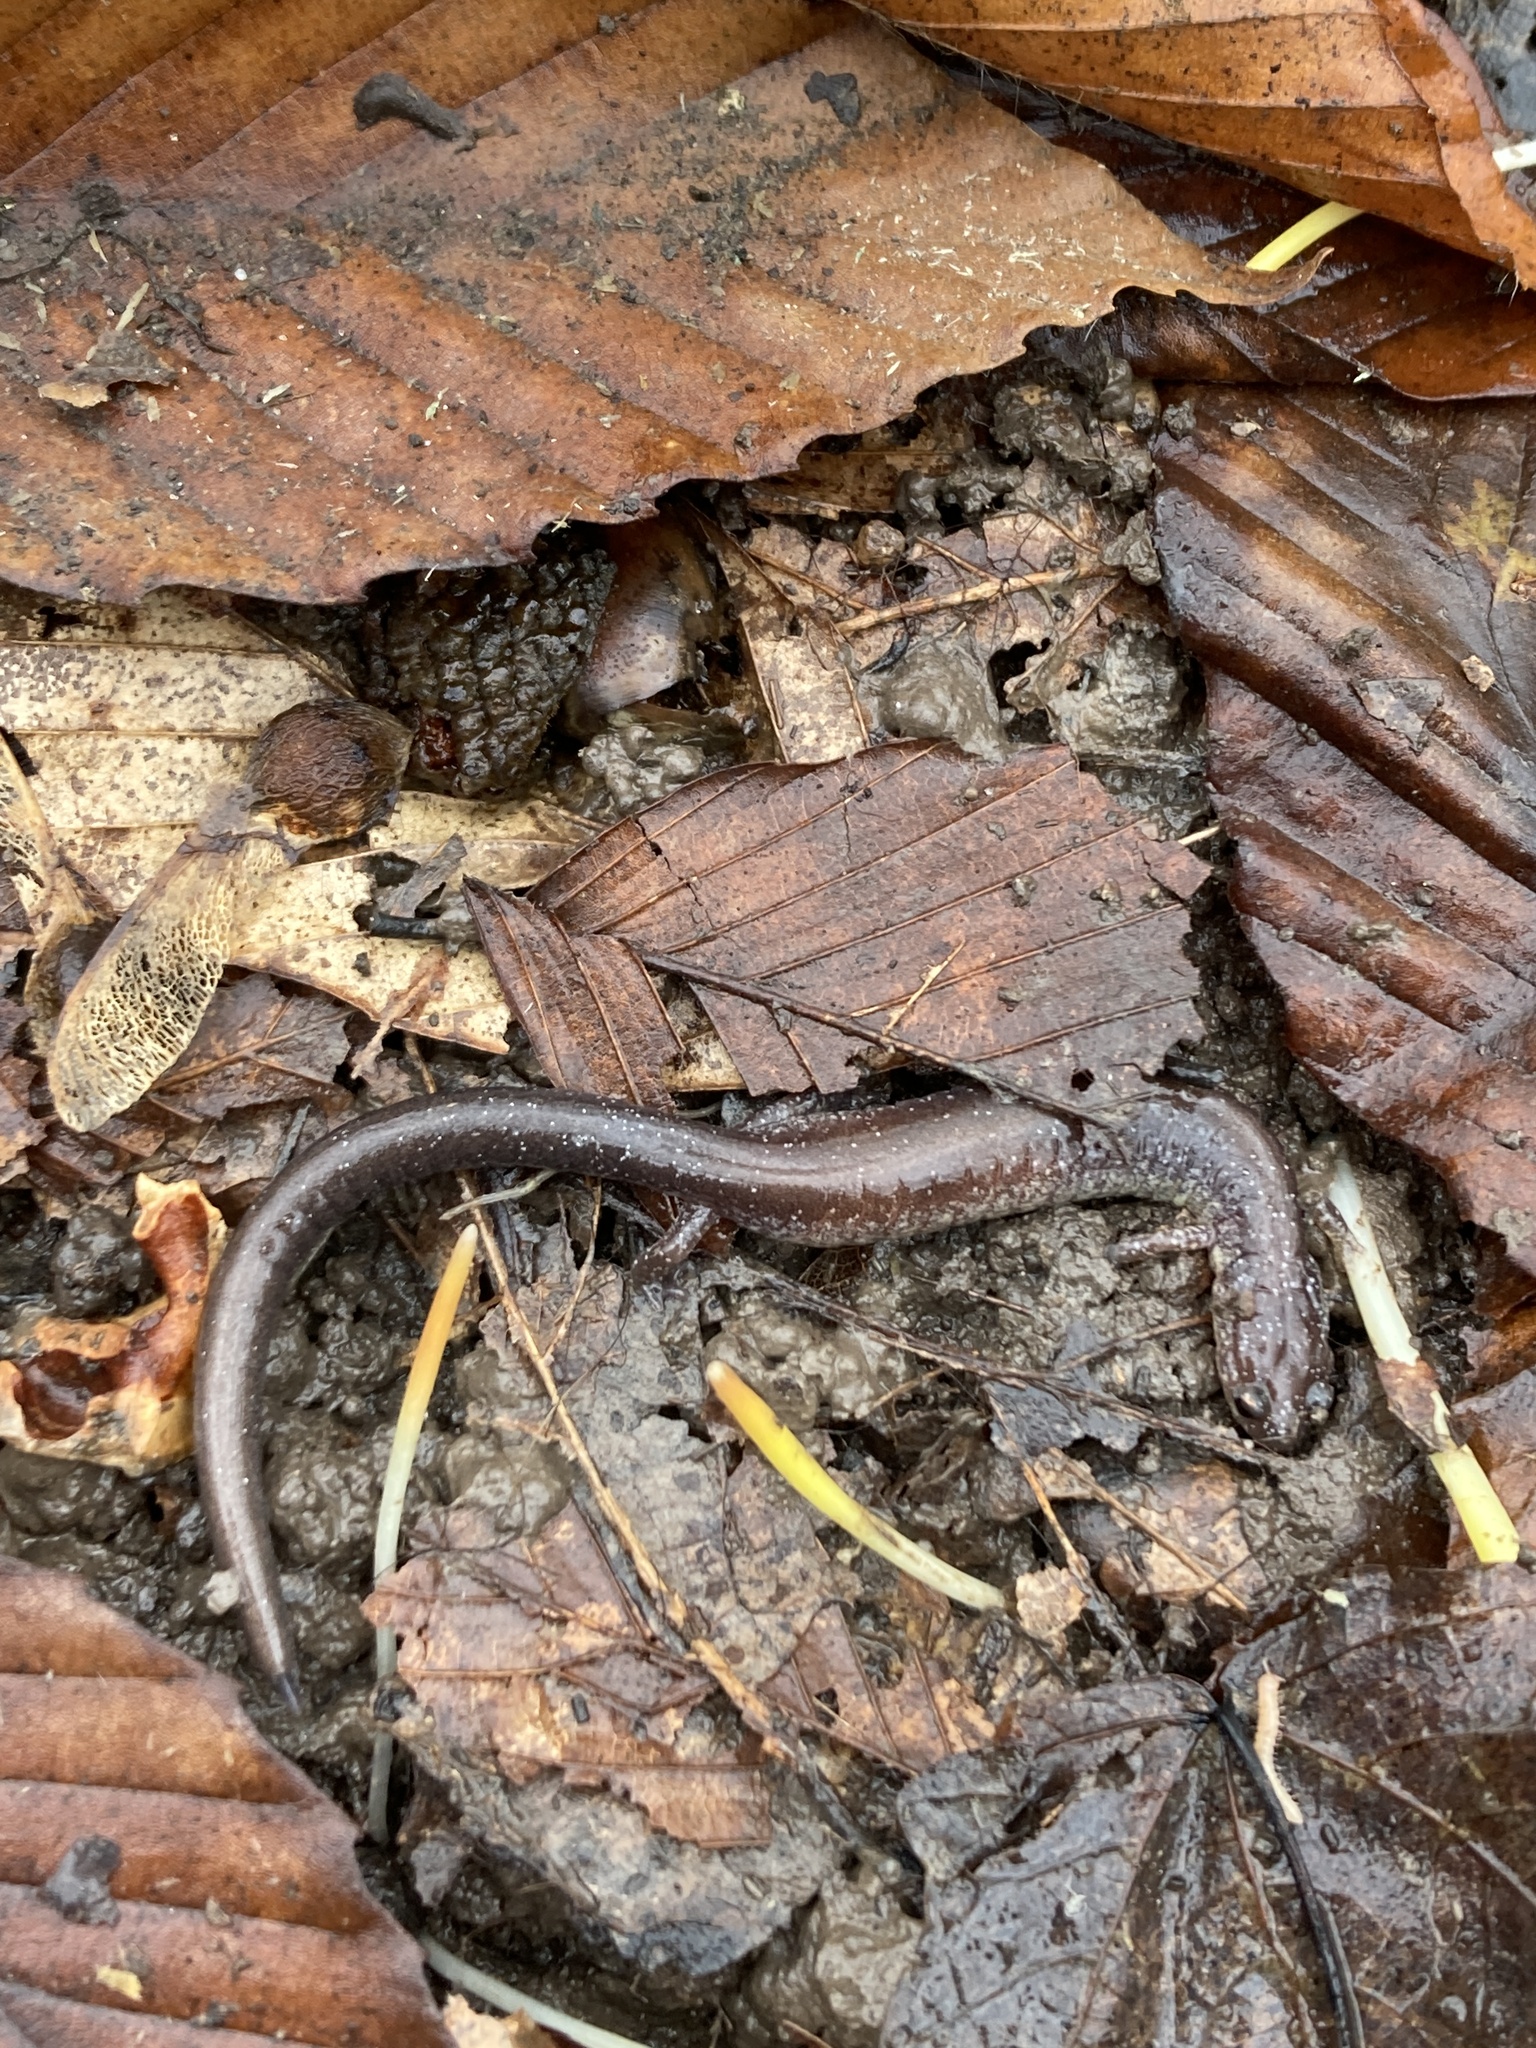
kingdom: Animalia
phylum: Chordata
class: Amphibia
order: Caudata
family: Plethodontidae
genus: Plethodon
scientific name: Plethodon cinereus
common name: Redback salamander
